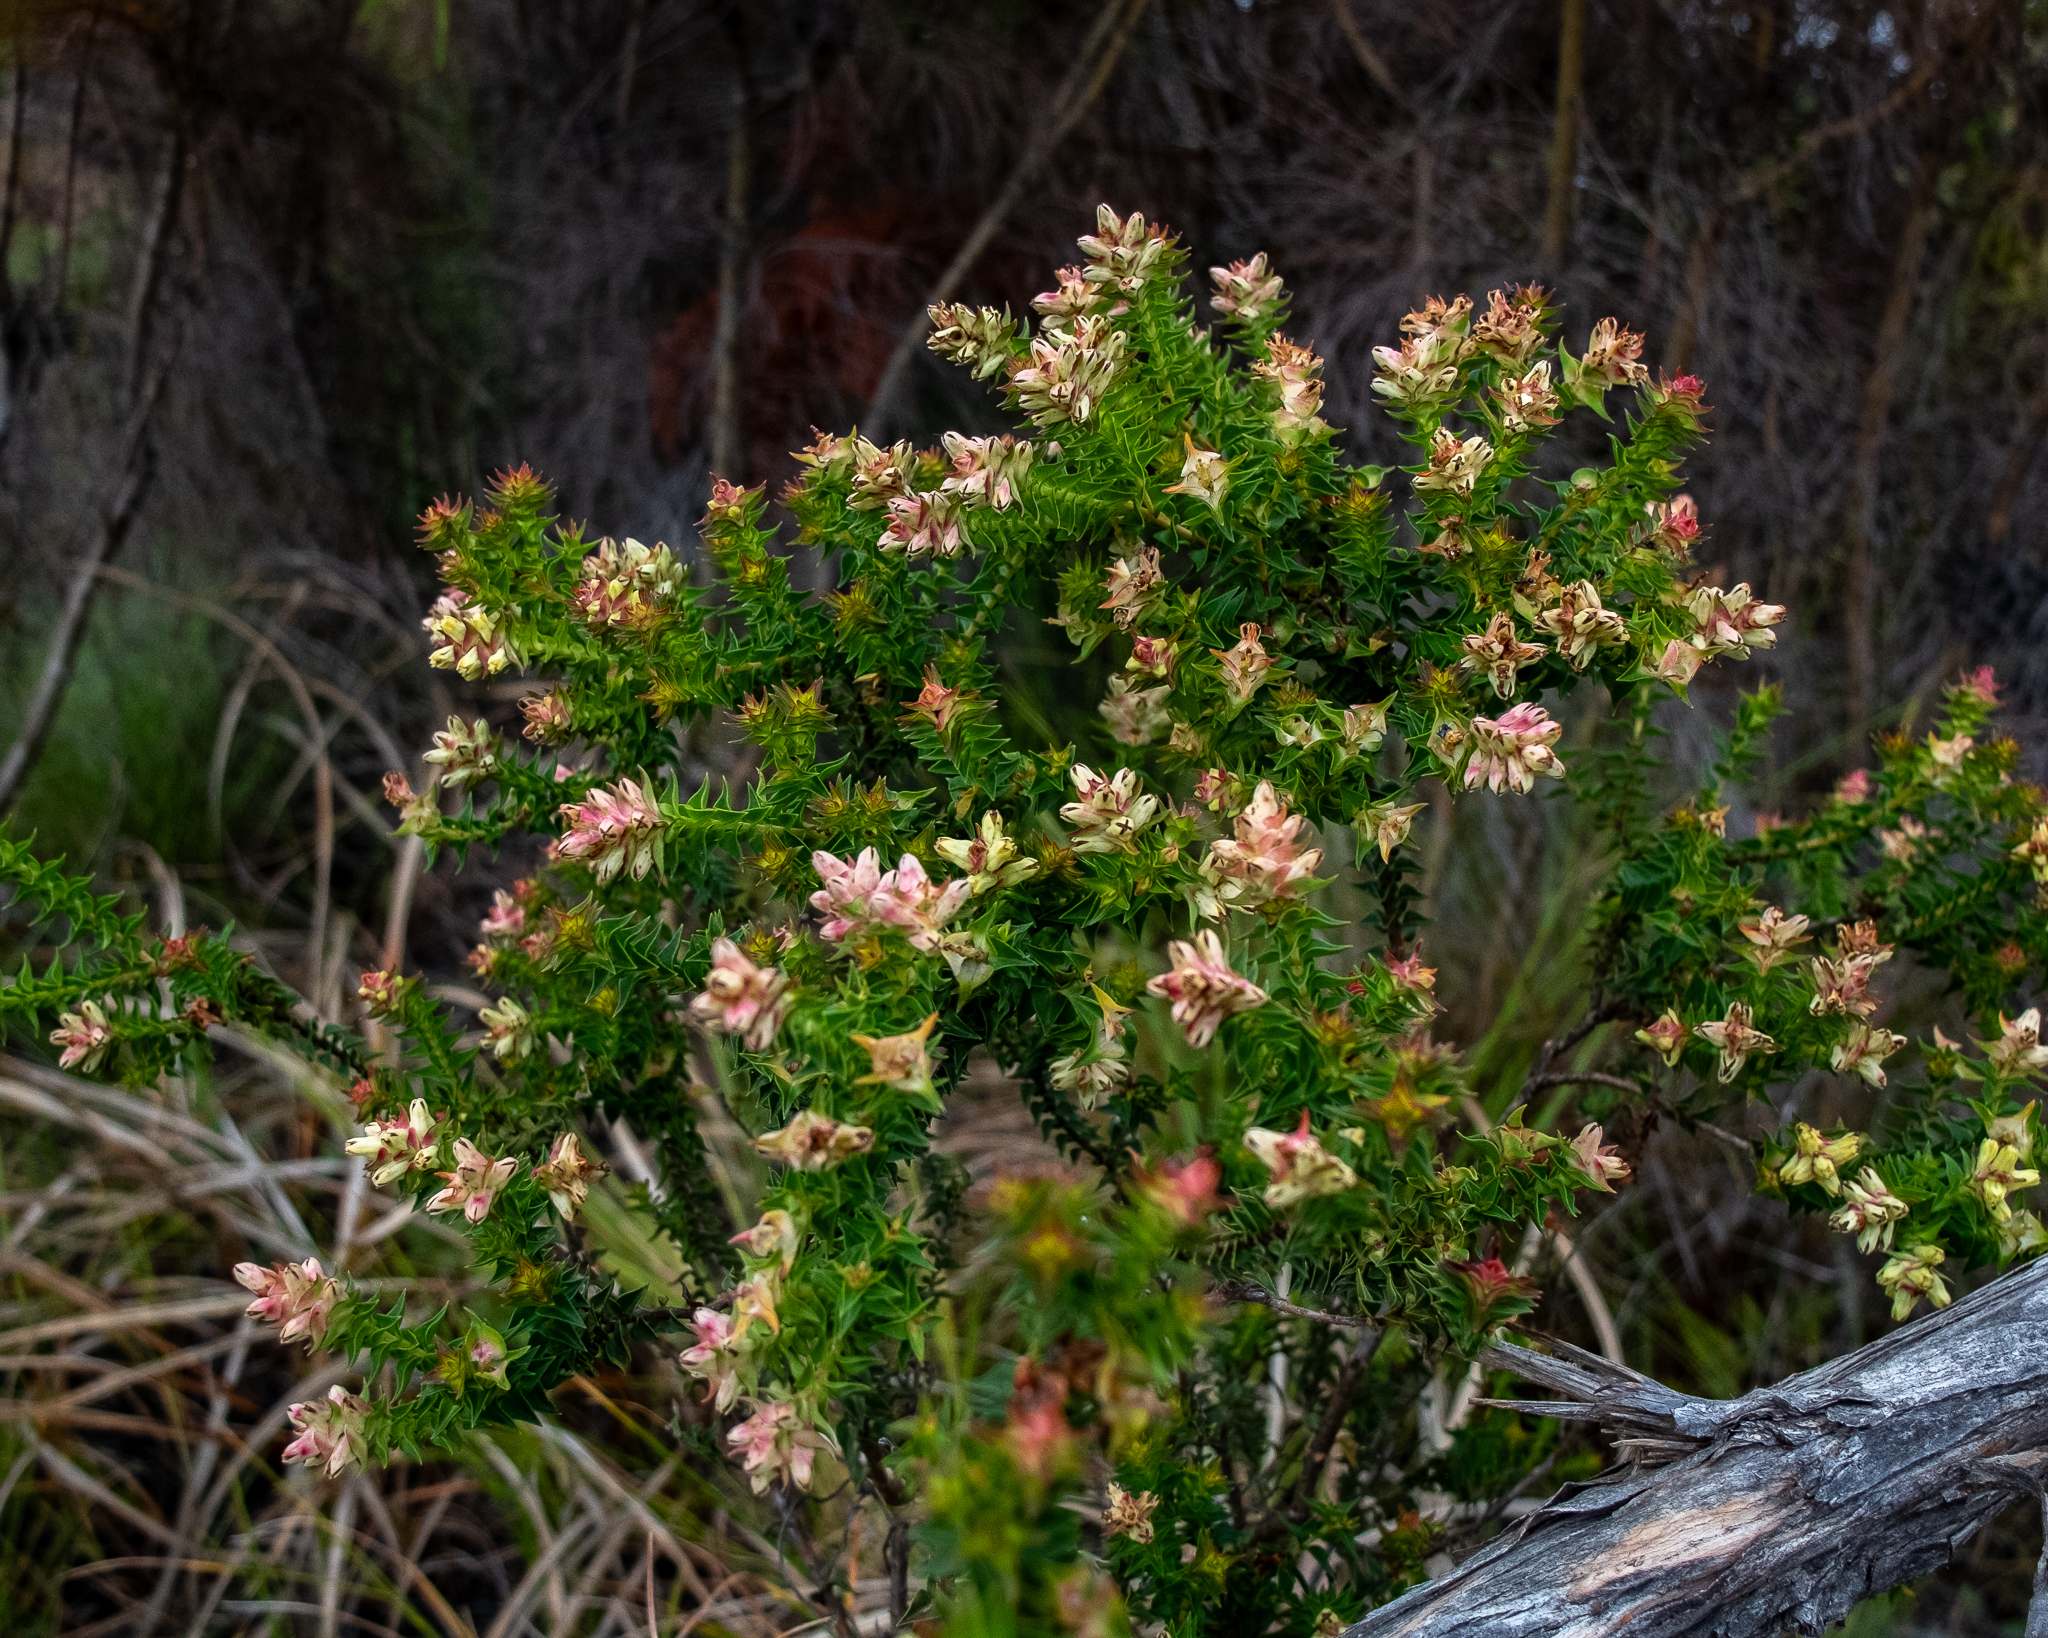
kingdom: Plantae
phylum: Tracheophyta
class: Magnoliopsida
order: Myrtales
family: Penaeaceae
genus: Penaea
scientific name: Penaea mucronata
